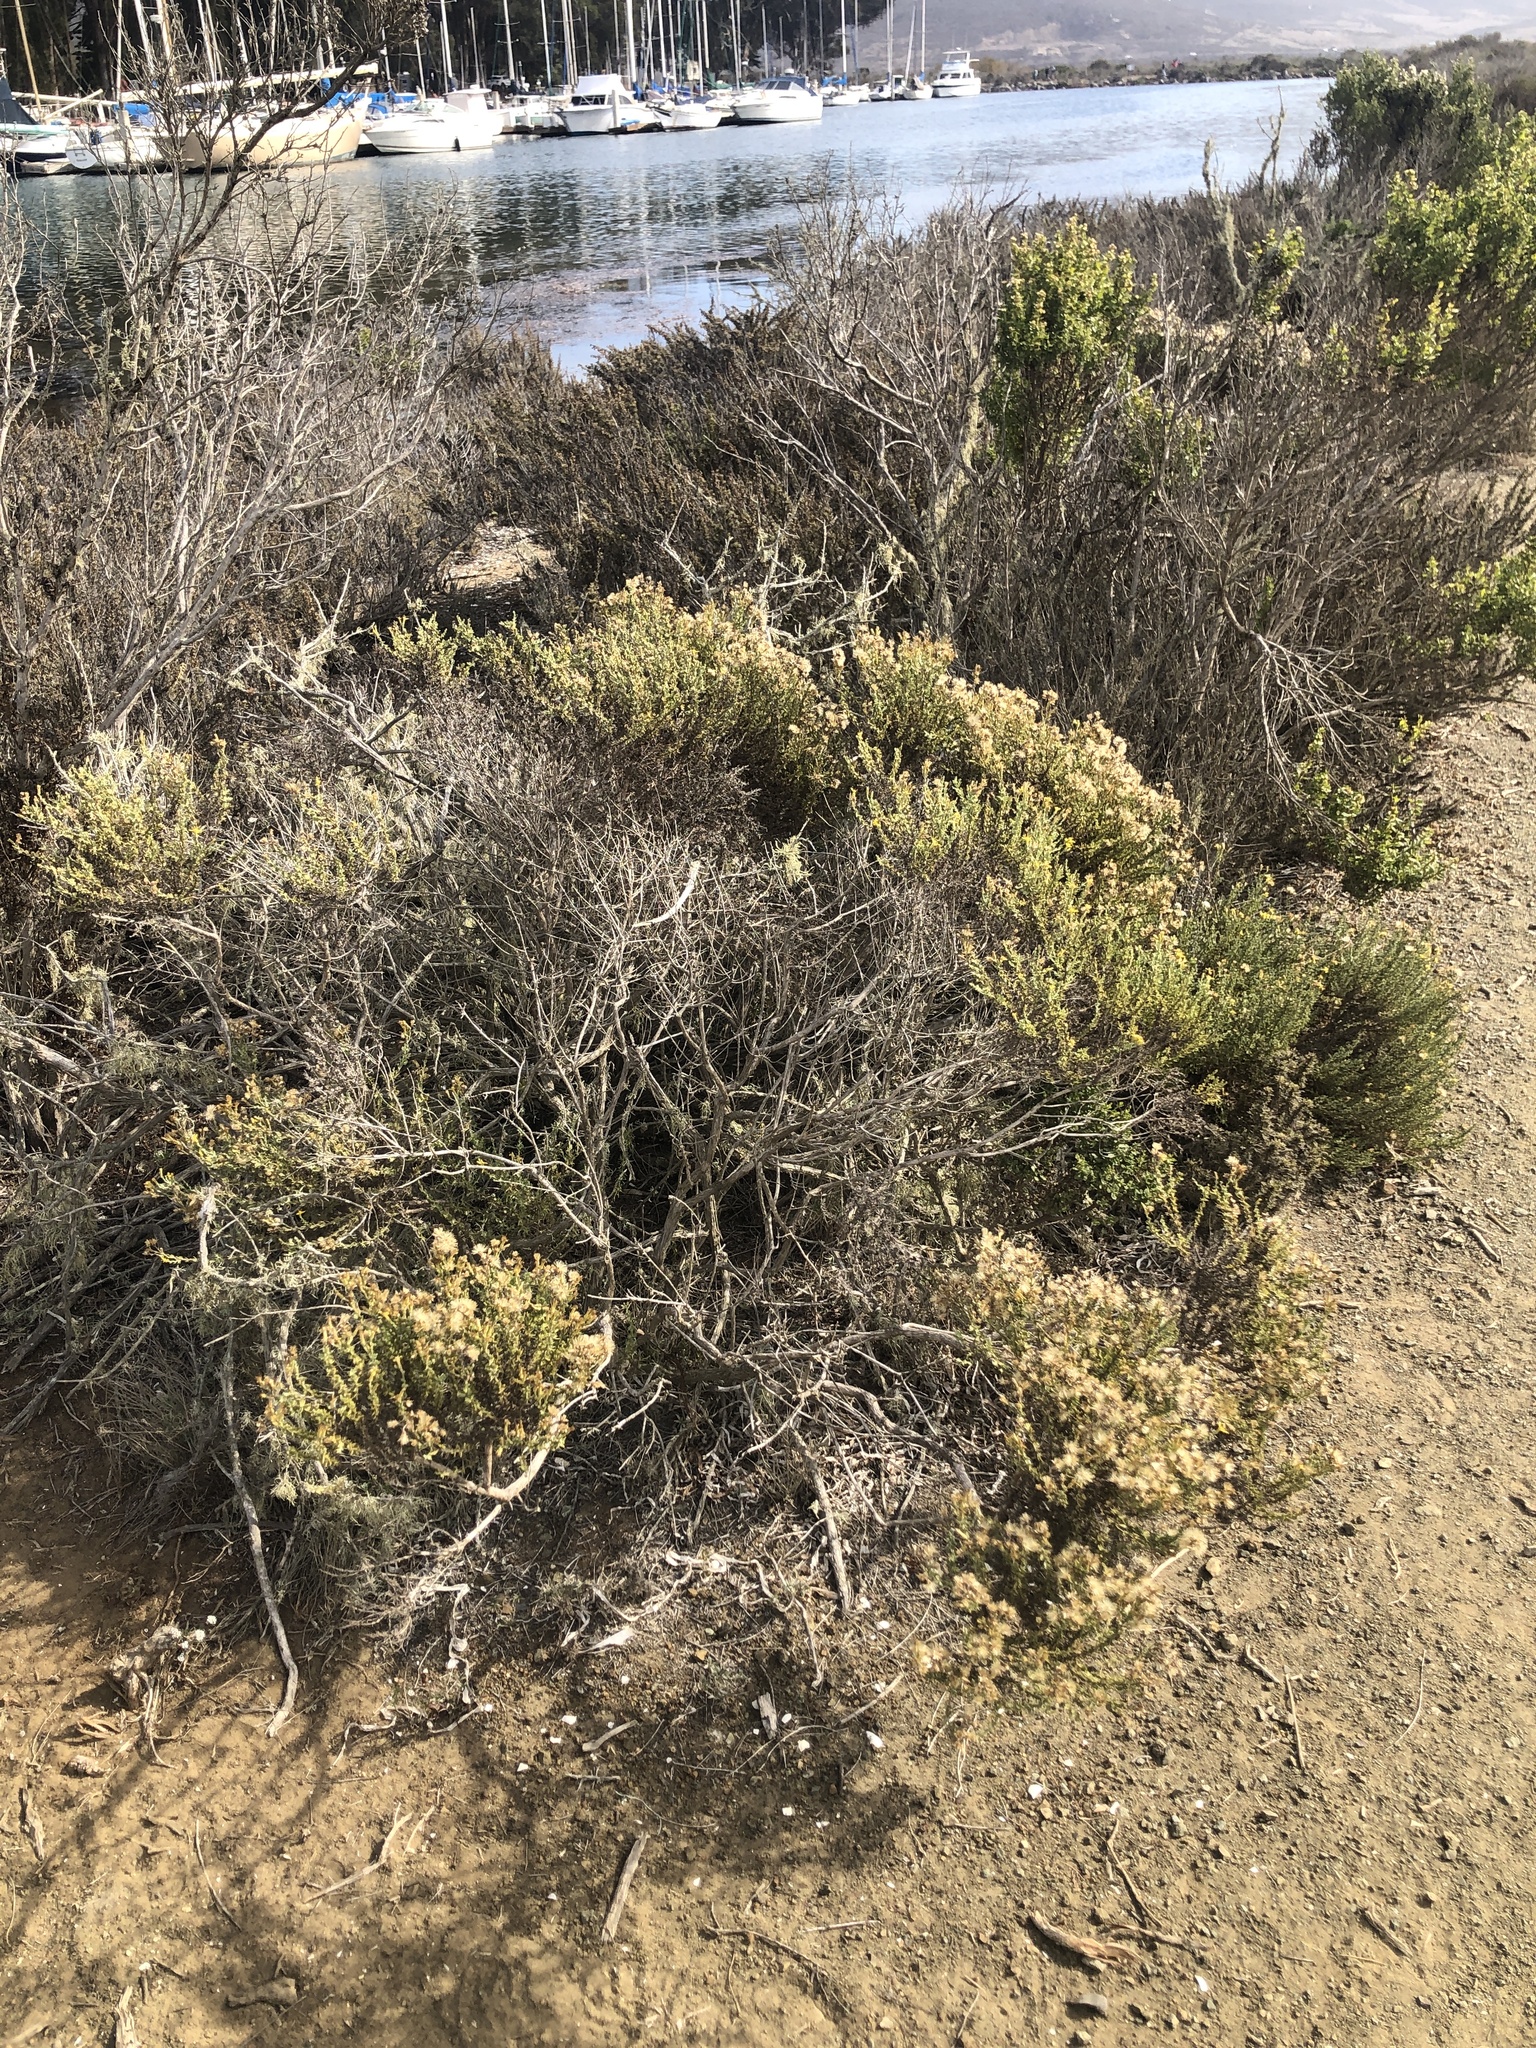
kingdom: Plantae
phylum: Tracheophyta
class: Magnoliopsida
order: Asterales
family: Asteraceae
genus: Ericameria
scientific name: Ericameria ericoides
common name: California goldenbush
